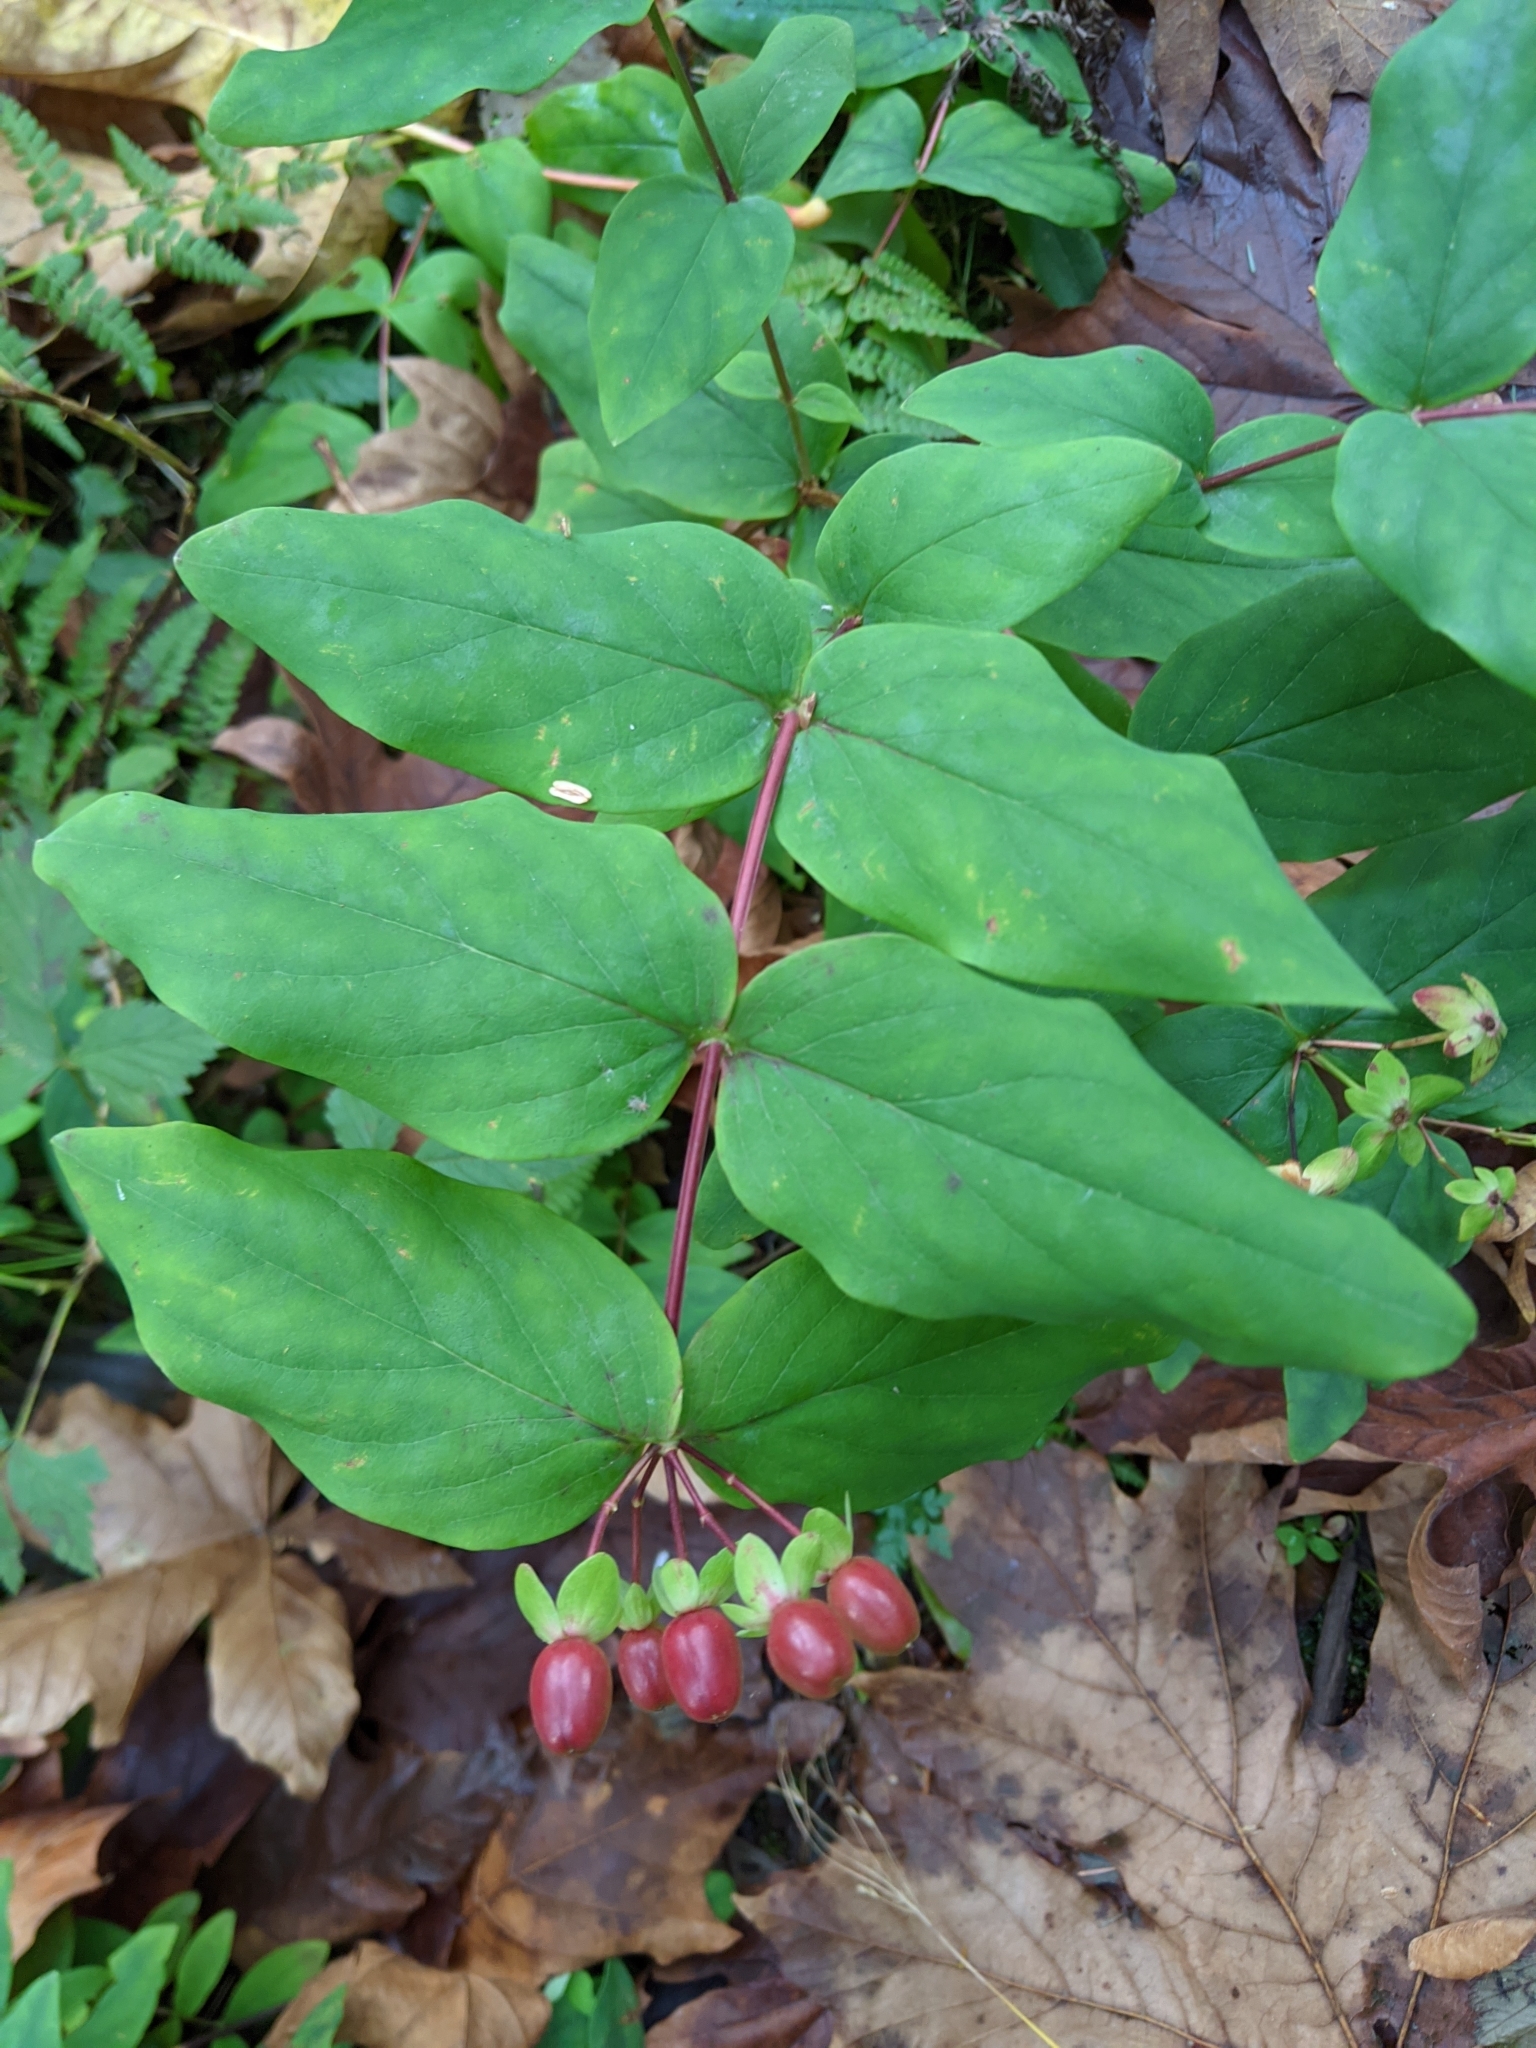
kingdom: Plantae
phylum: Tracheophyta
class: Magnoliopsida
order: Malpighiales
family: Hypericaceae
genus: Hypericum
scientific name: Hypericum androsaemum
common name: Sweet-amber
